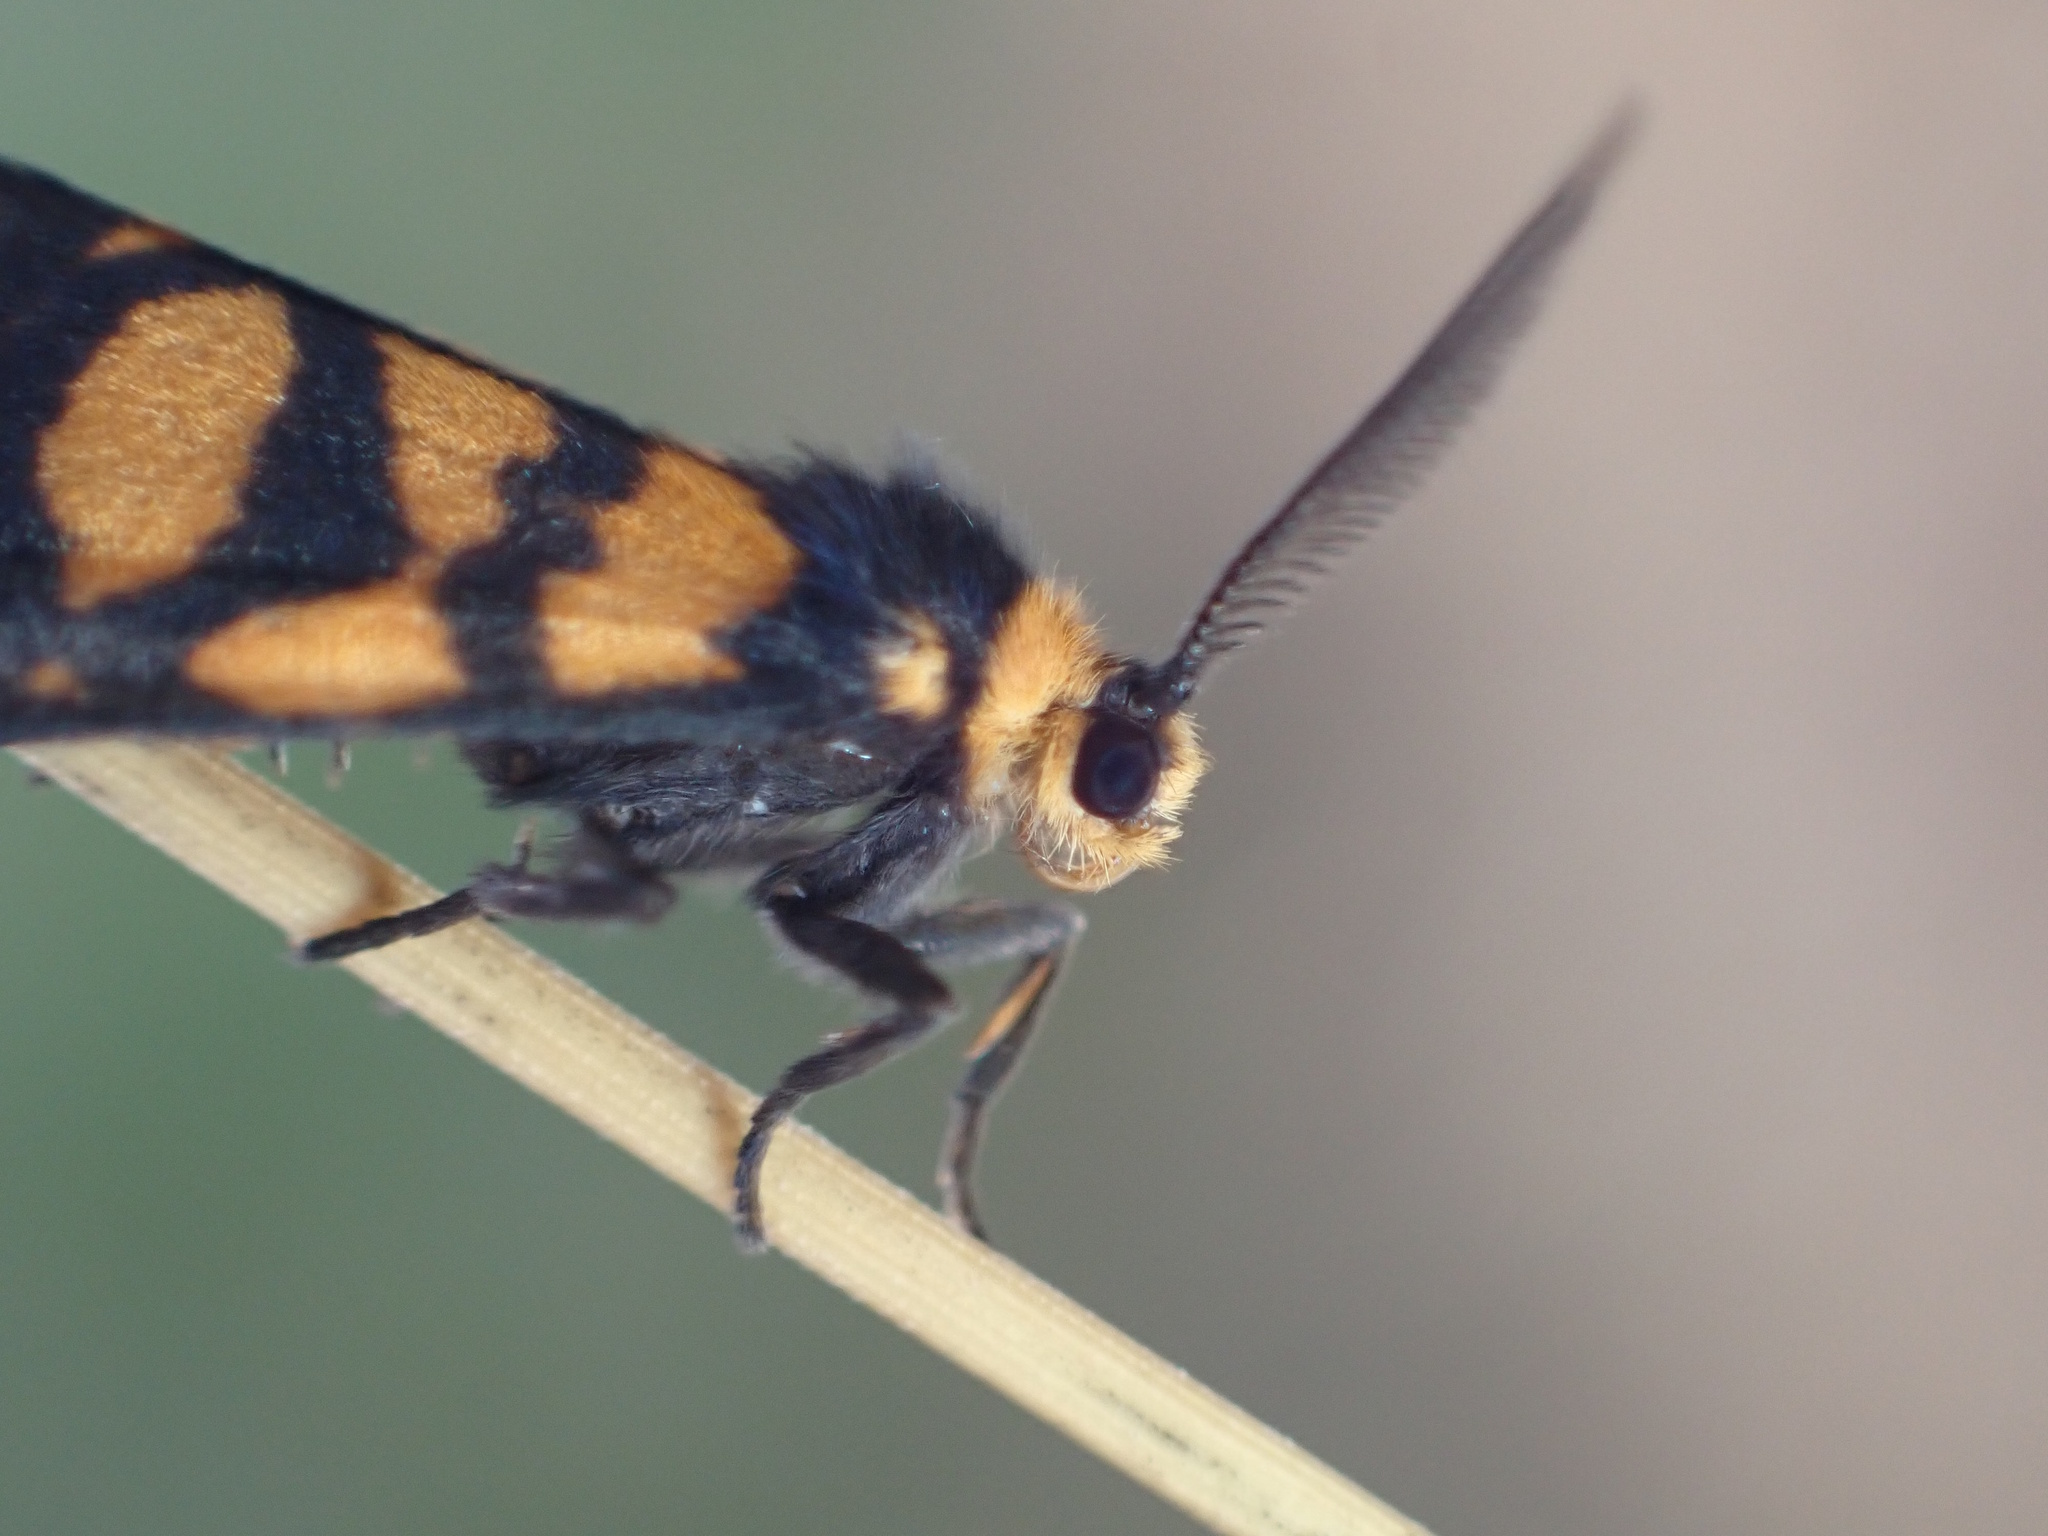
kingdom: Animalia
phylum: Arthropoda
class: Insecta
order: Lepidoptera
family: Erebidae
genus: Asura
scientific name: Asura lydia
